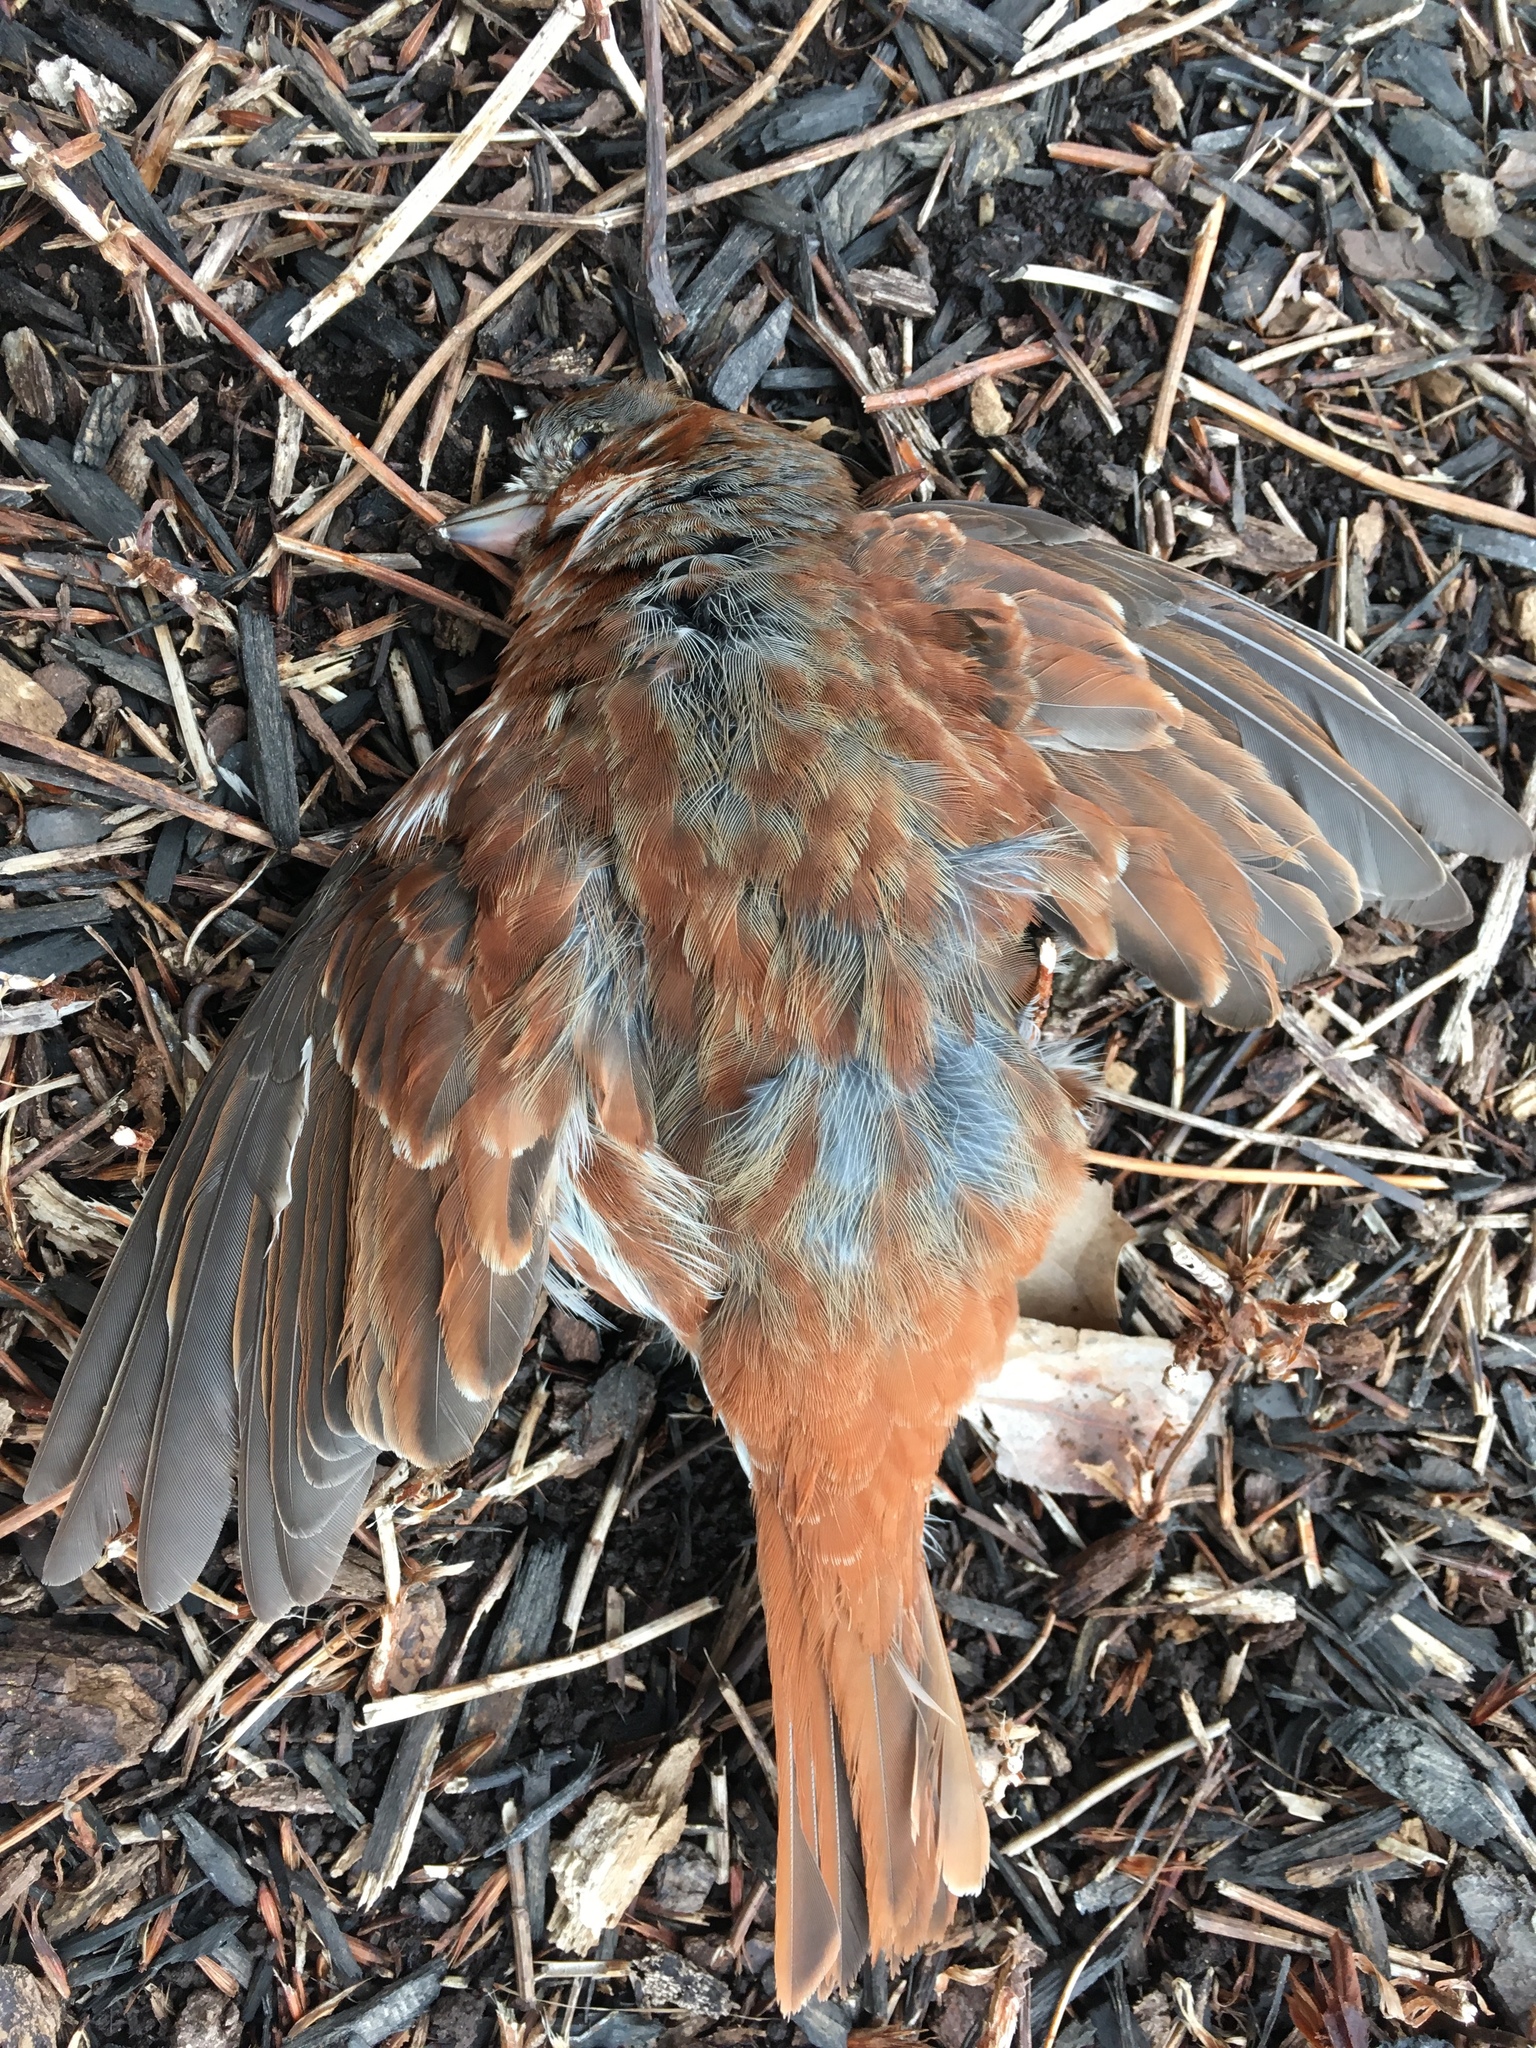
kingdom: Animalia
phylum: Chordata
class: Aves
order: Passeriformes
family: Passerellidae
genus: Passerella
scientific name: Passerella iliaca
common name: Fox sparrow
